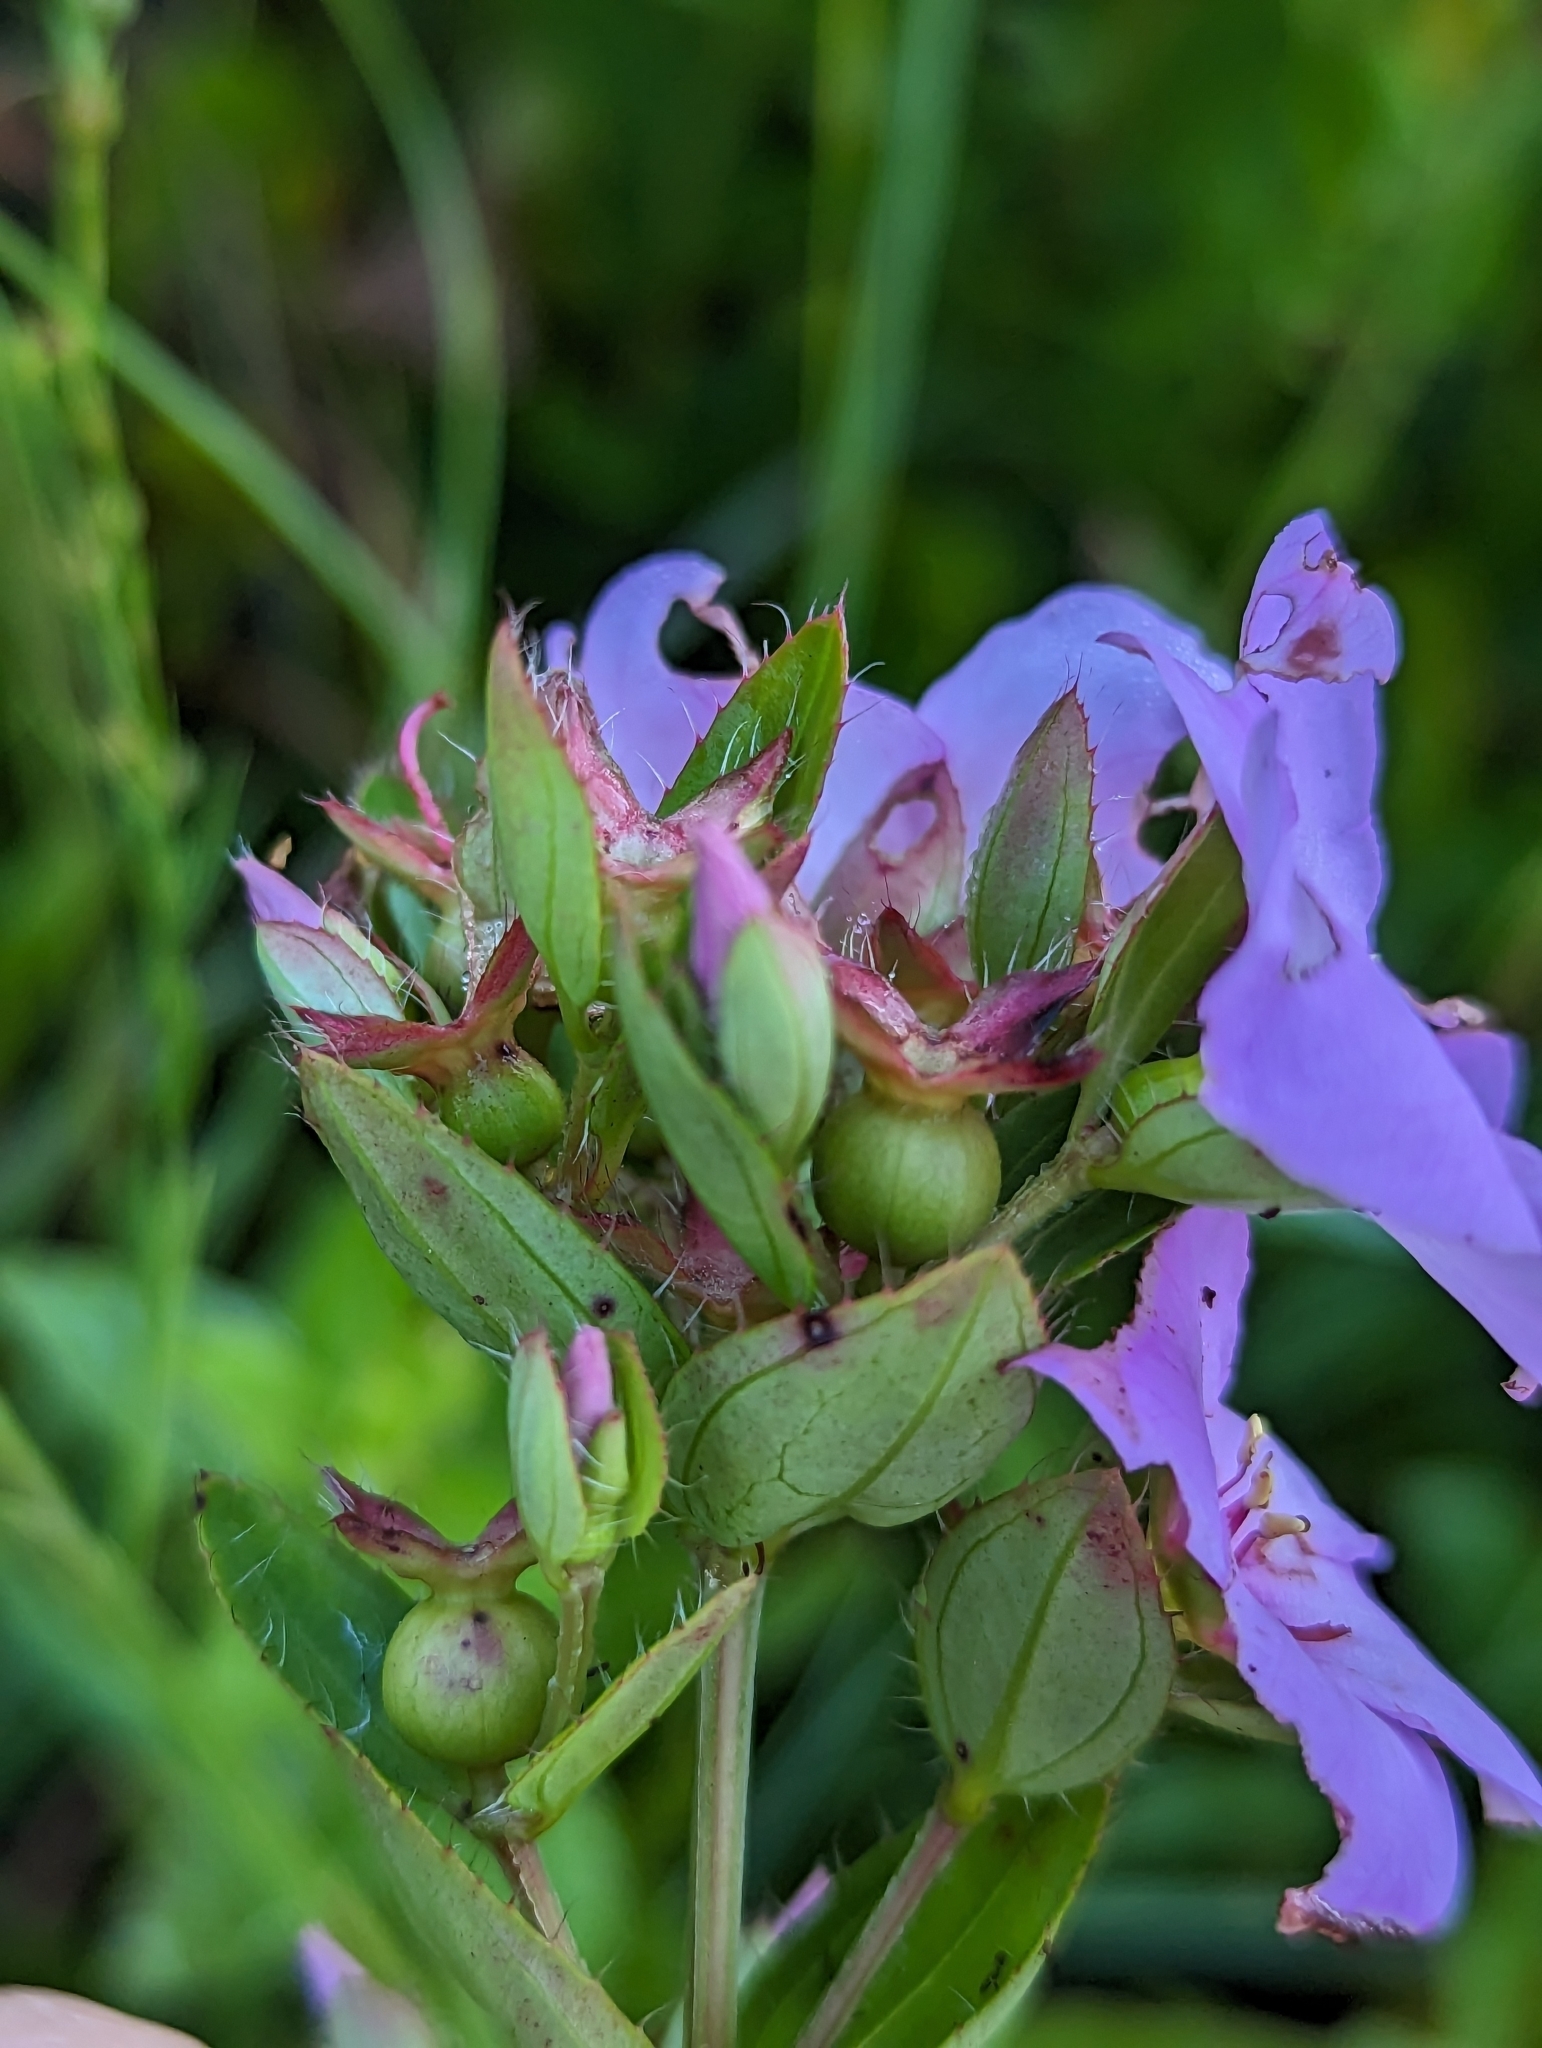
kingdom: Plantae
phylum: Tracheophyta
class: Magnoliopsida
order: Myrtales
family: Melastomataceae
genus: Rhexia
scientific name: Rhexia petiolata
